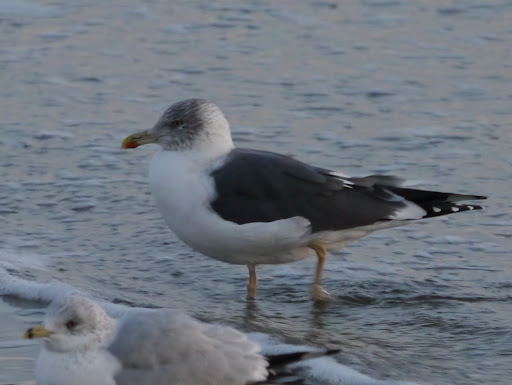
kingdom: Animalia
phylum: Chordata
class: Aves
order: Charadriiformes
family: Laridae
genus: Larus
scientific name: Larus fuscus
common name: Lesser black-backed gull
